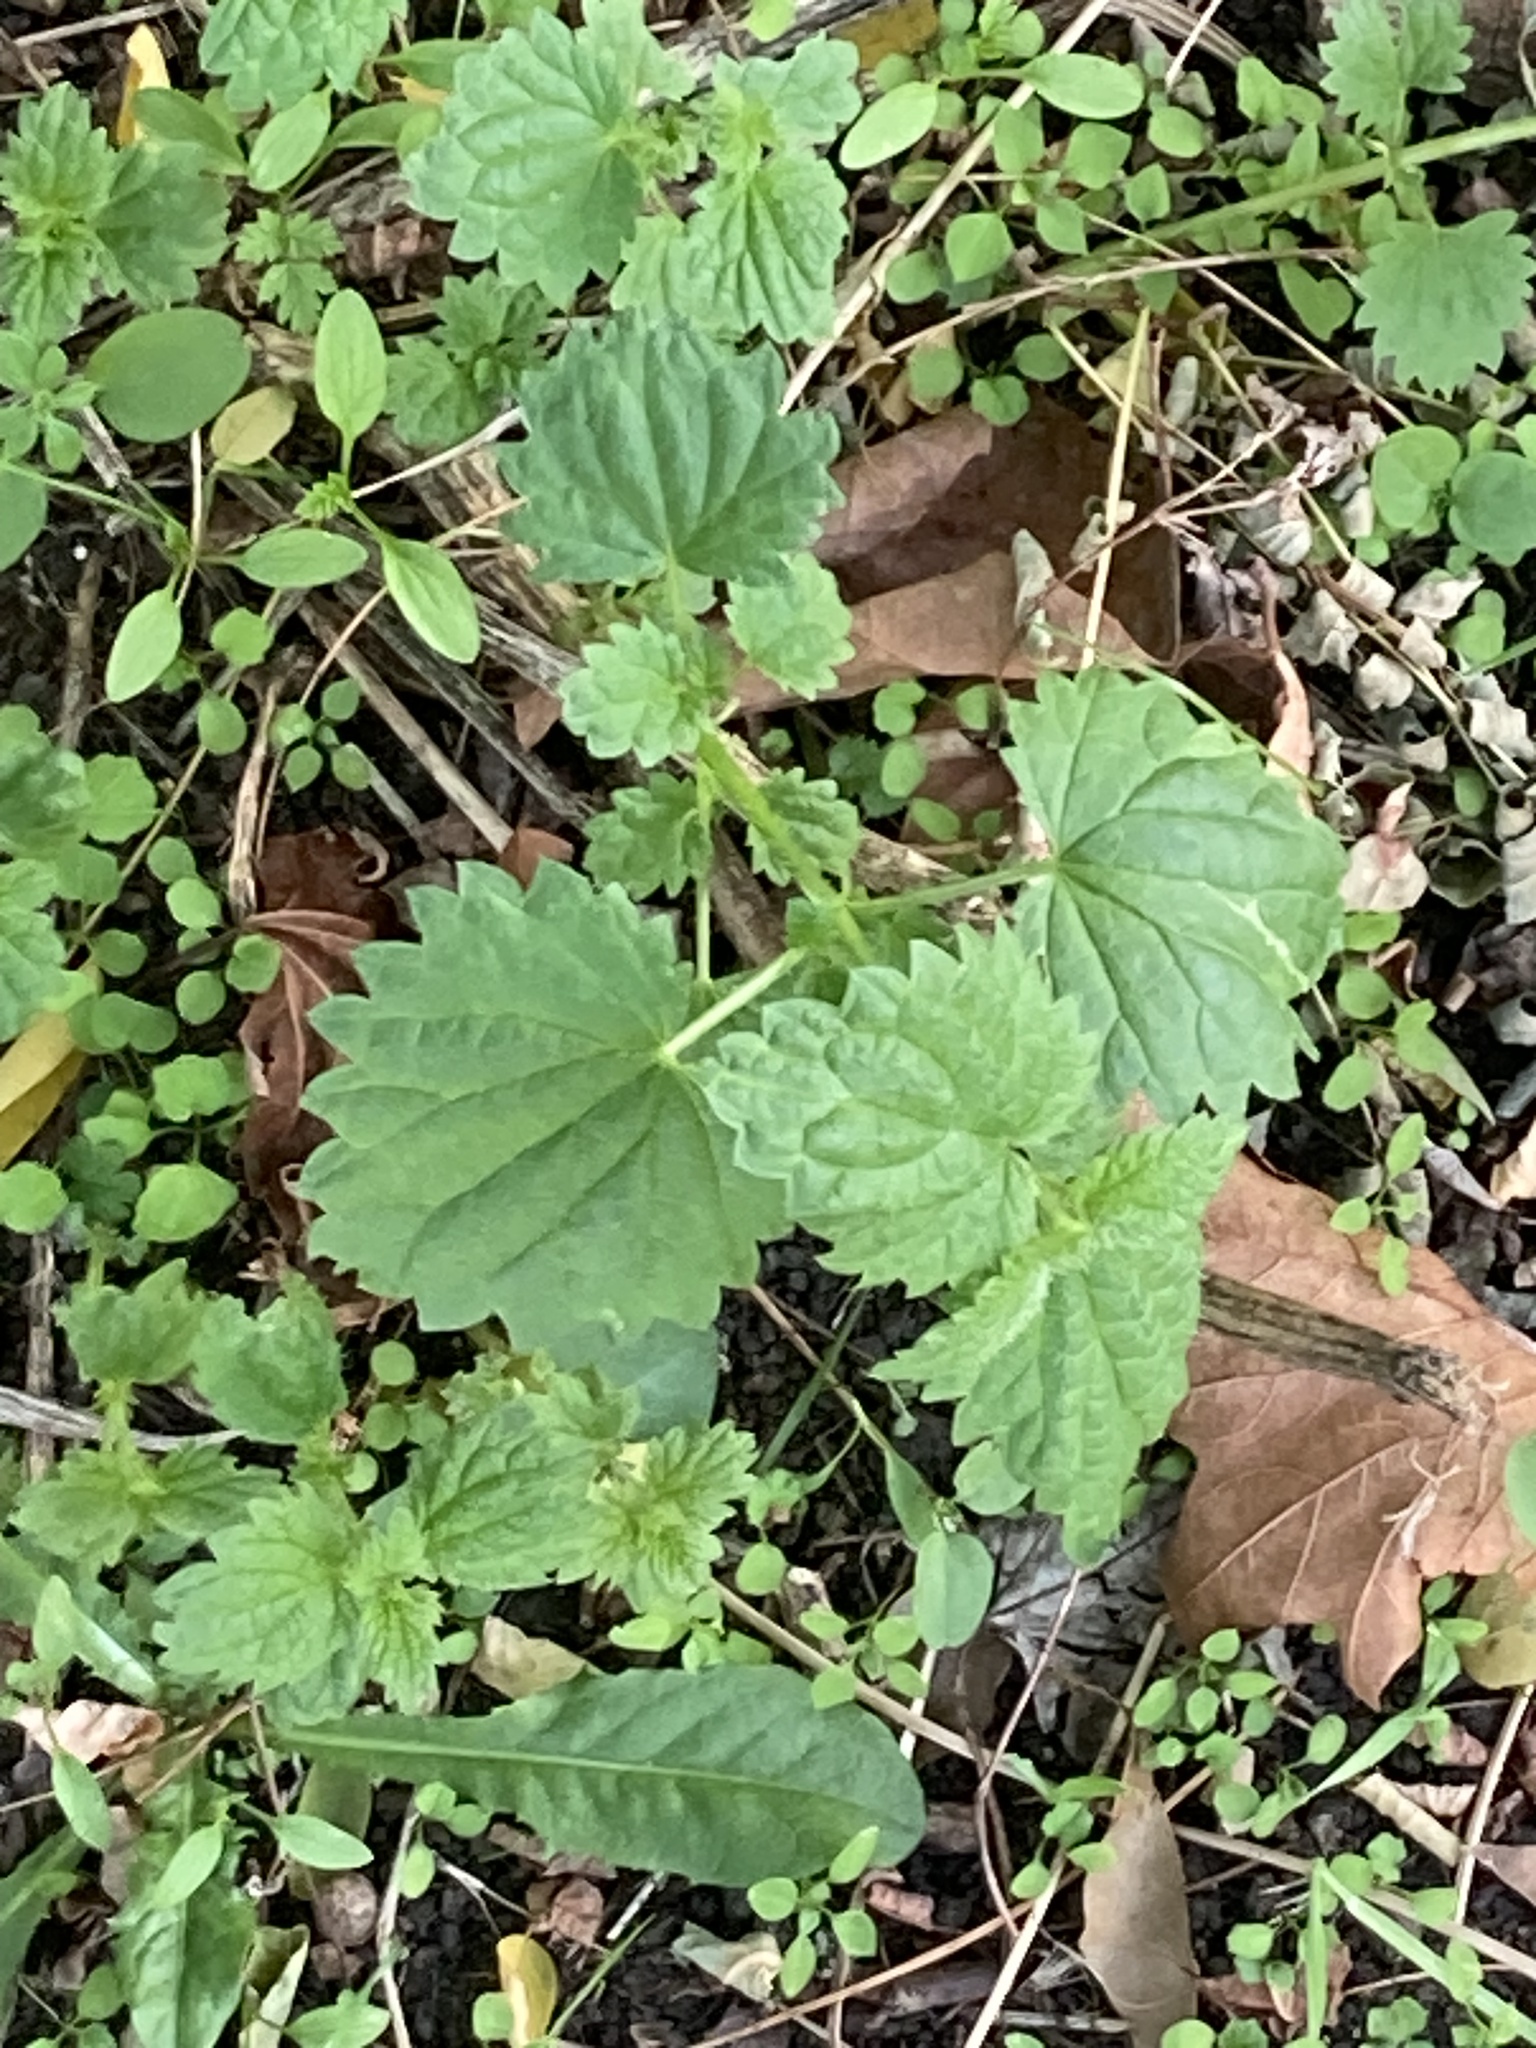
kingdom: Plantae
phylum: Tracheophyta
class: Magnoliopsida
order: Rosales
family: Urticaceae
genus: Urtica
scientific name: Urtica dioica
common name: Common nettle
